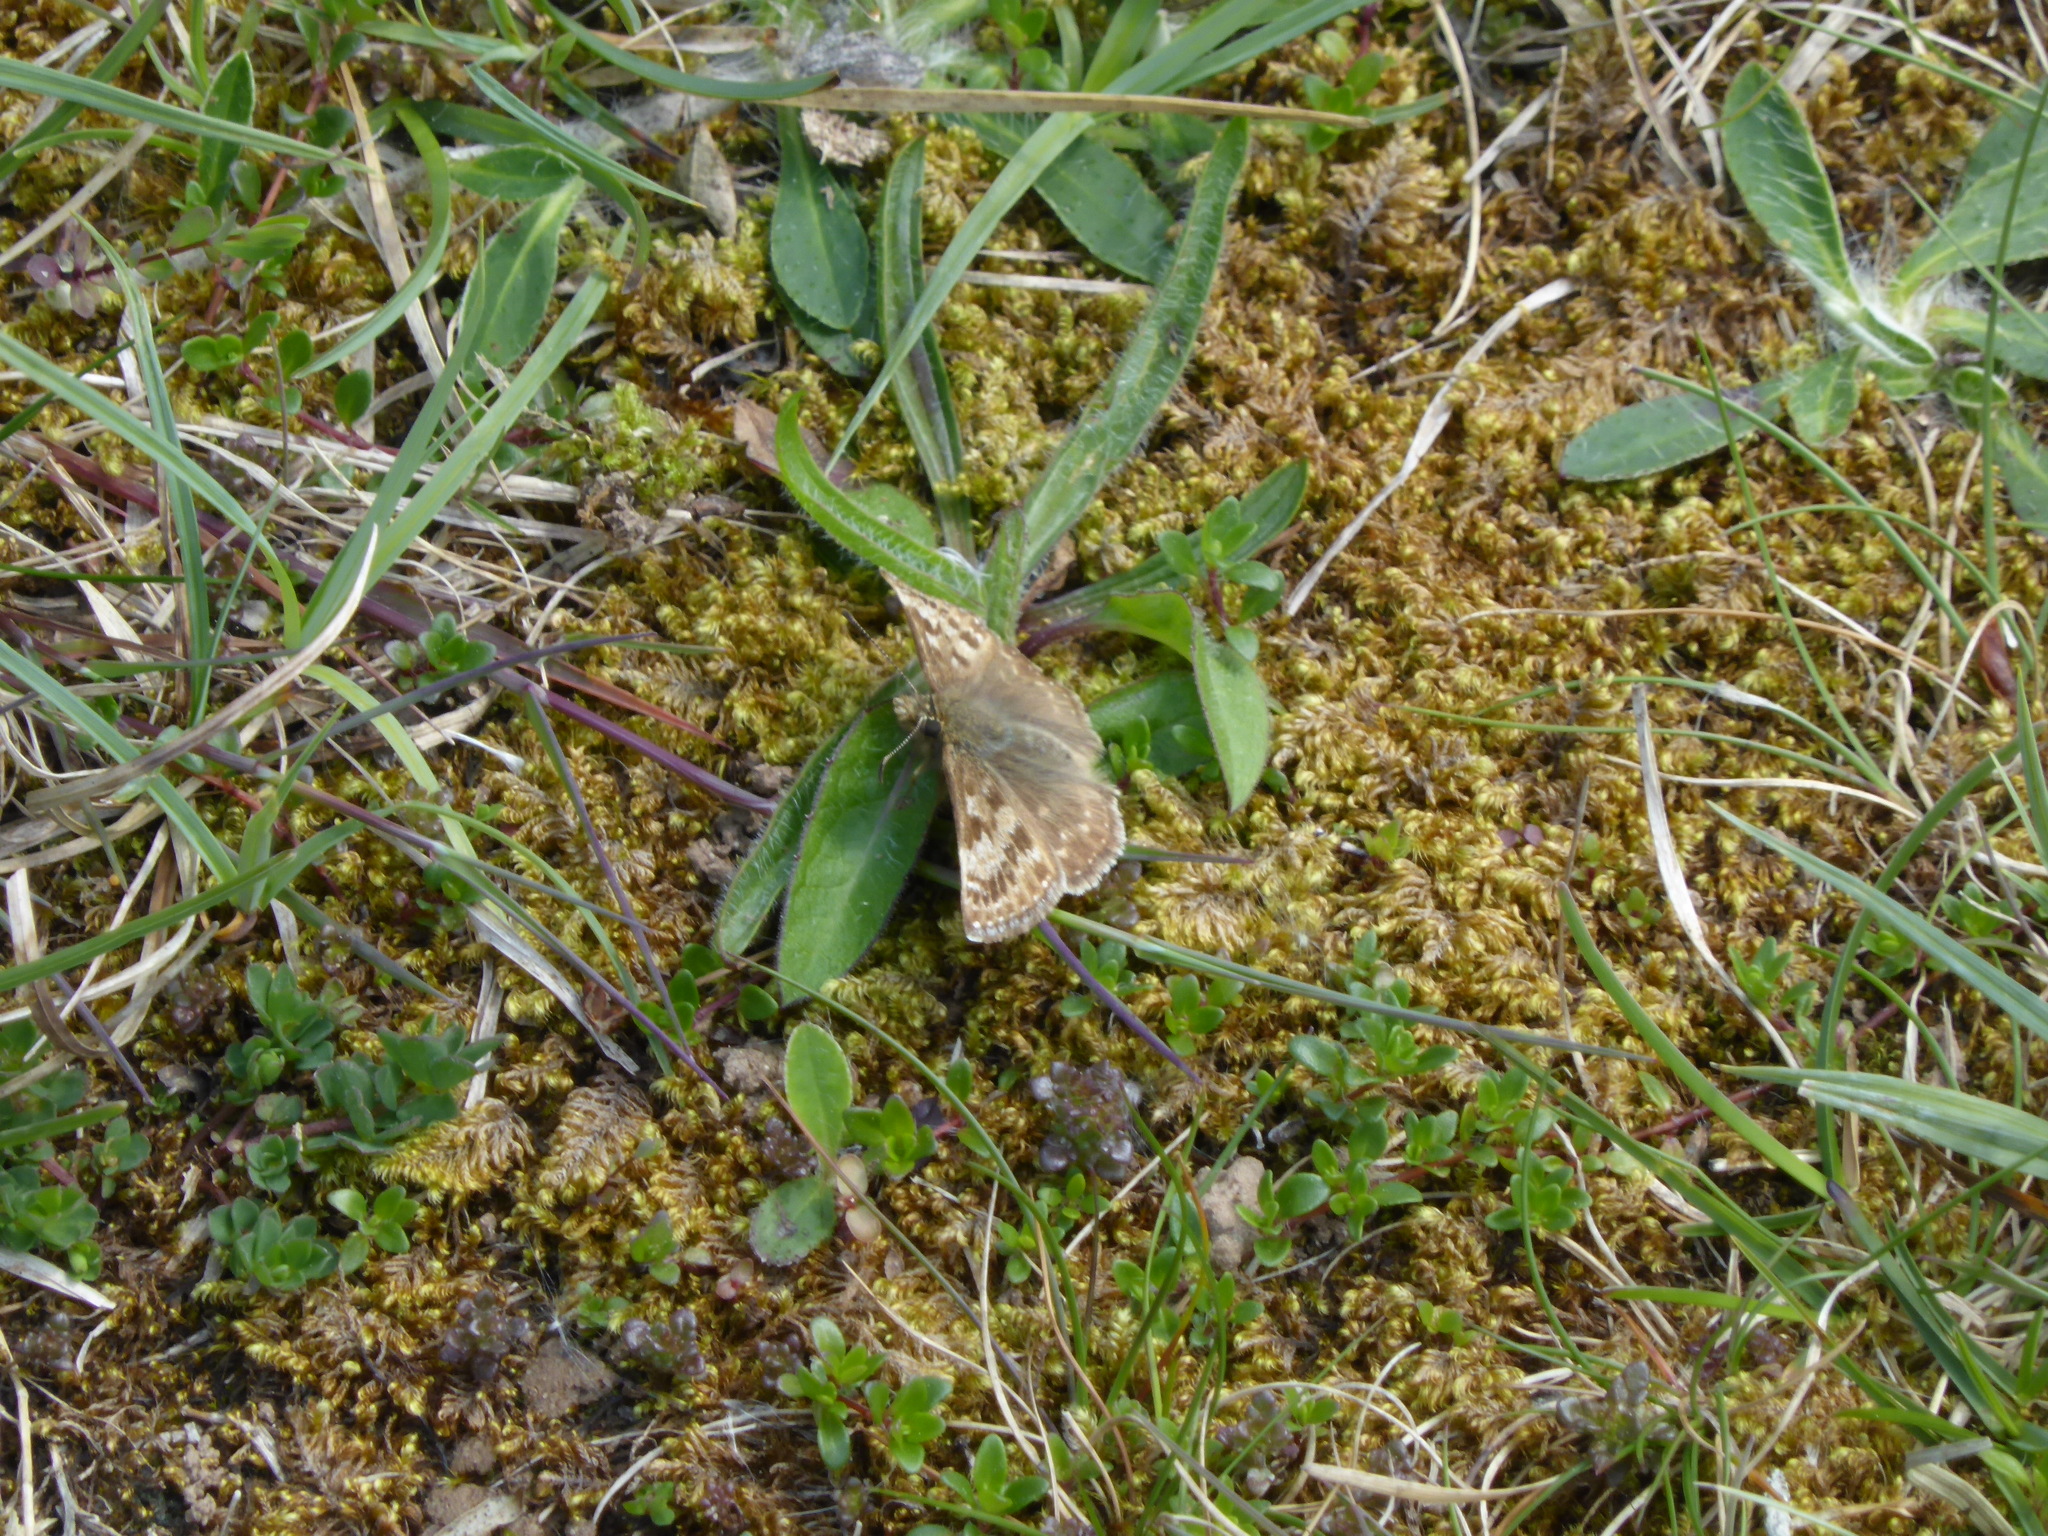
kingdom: Animalia
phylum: Arthropoda
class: Insecta
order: Lepidoptera
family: Hesperiidae
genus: Erynnis
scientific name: Erynnis tages
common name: Dingy skipper
